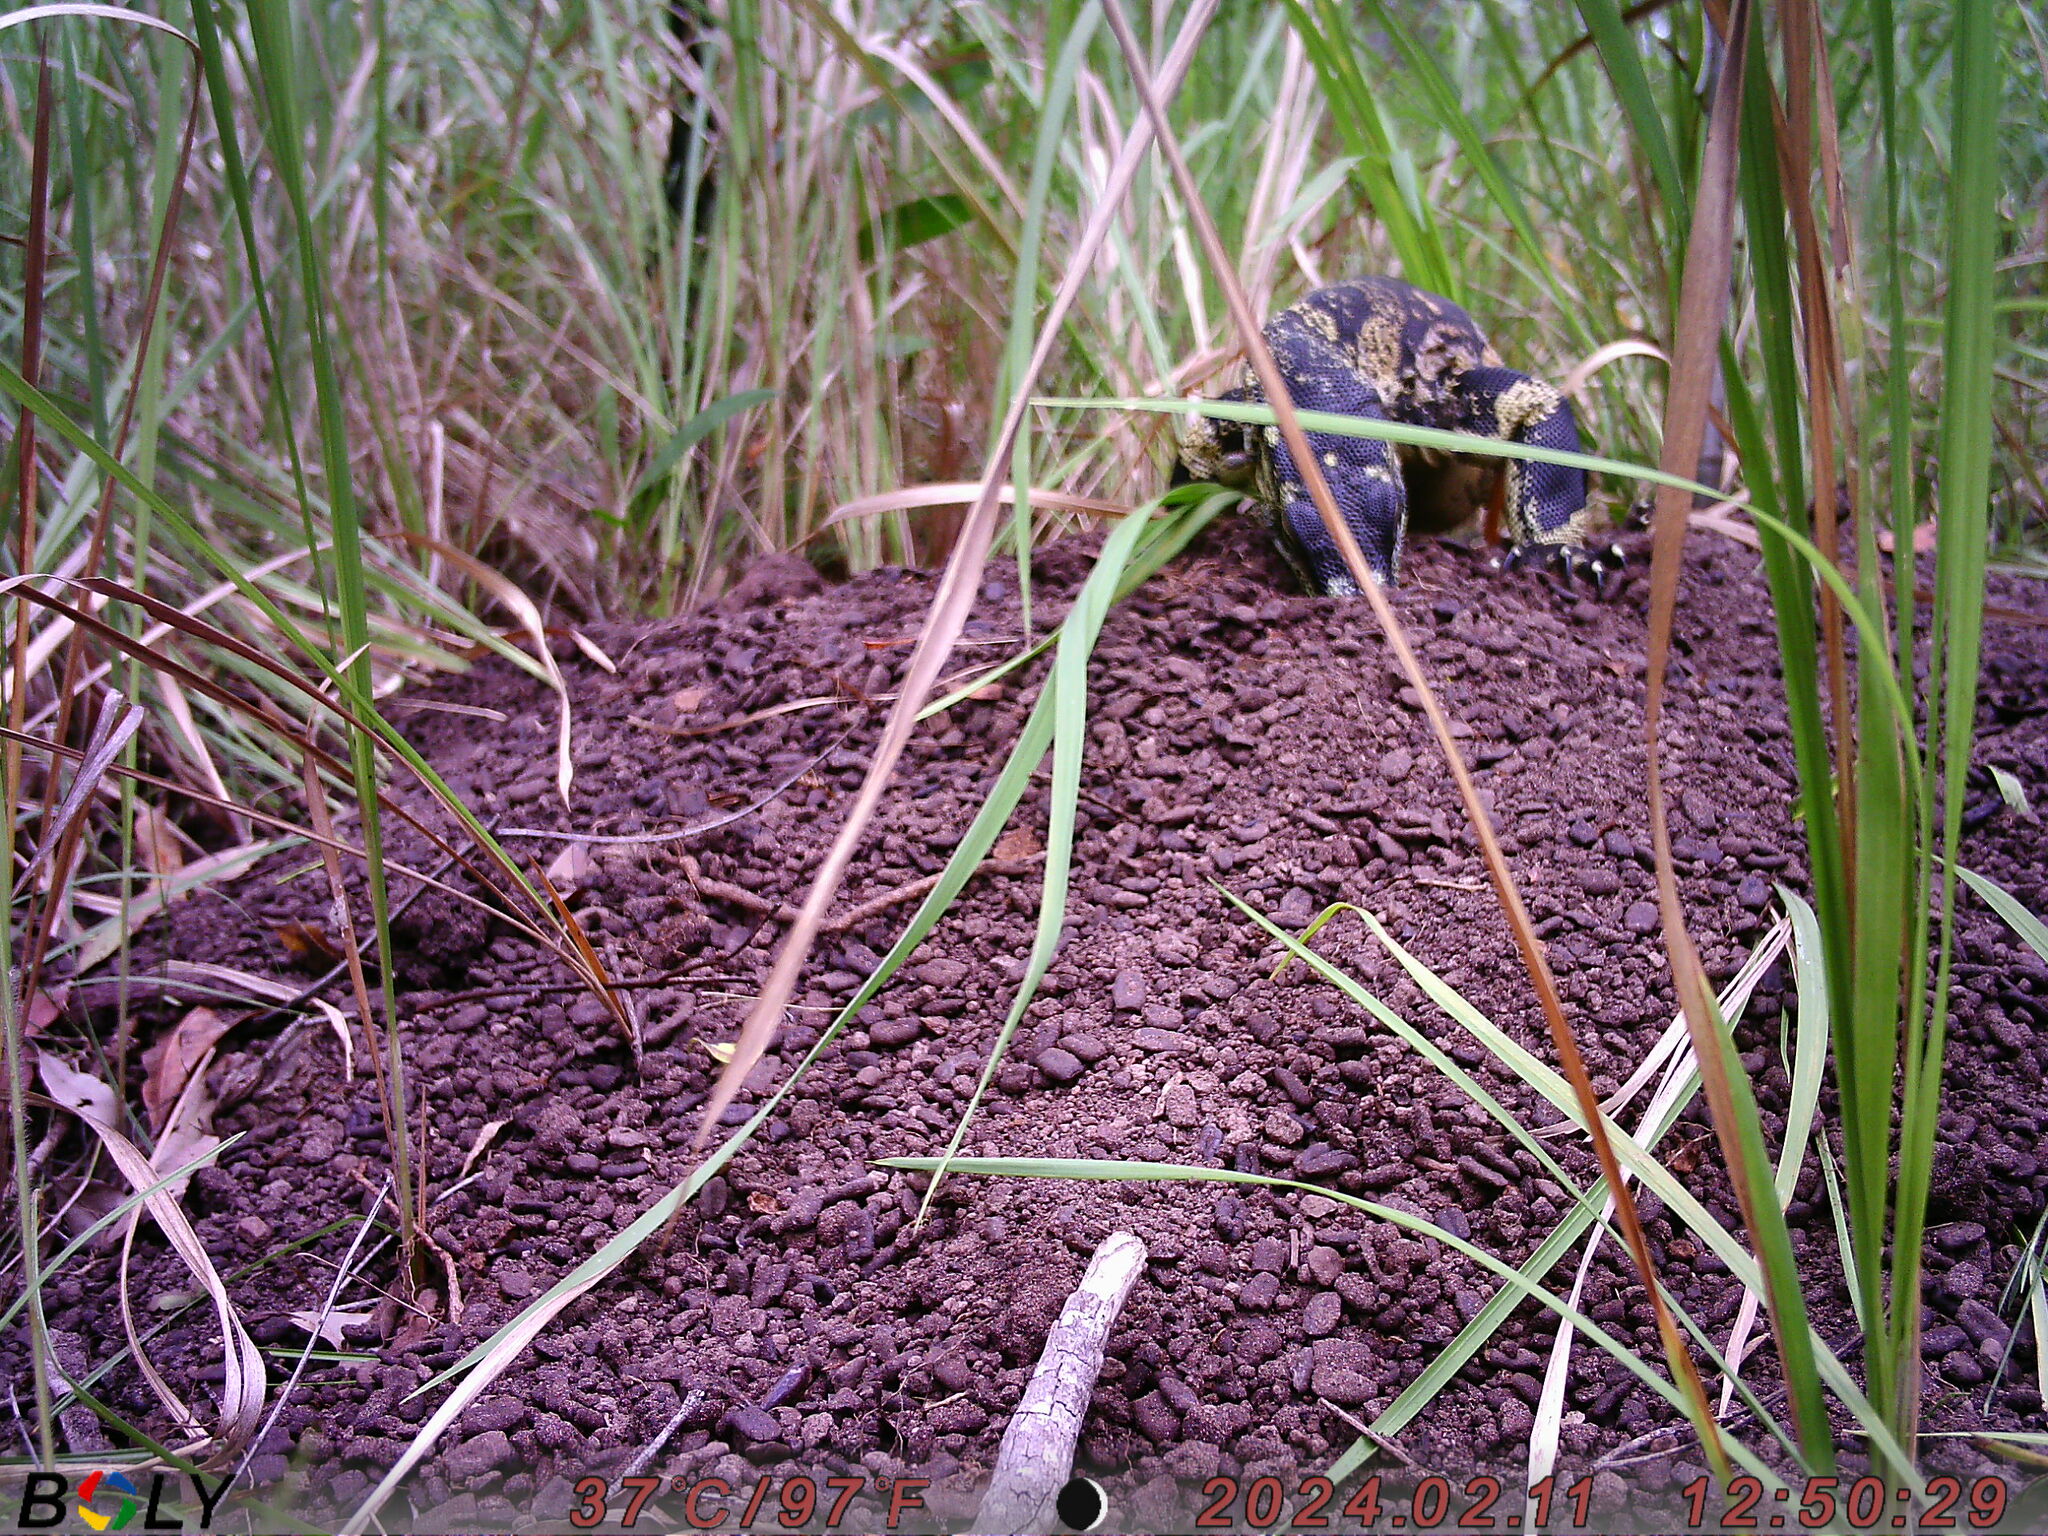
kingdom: Animalia
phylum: Chordata
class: Squamata
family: Varanidae
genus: Varanus
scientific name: Varanus varius
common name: Lace monitor
